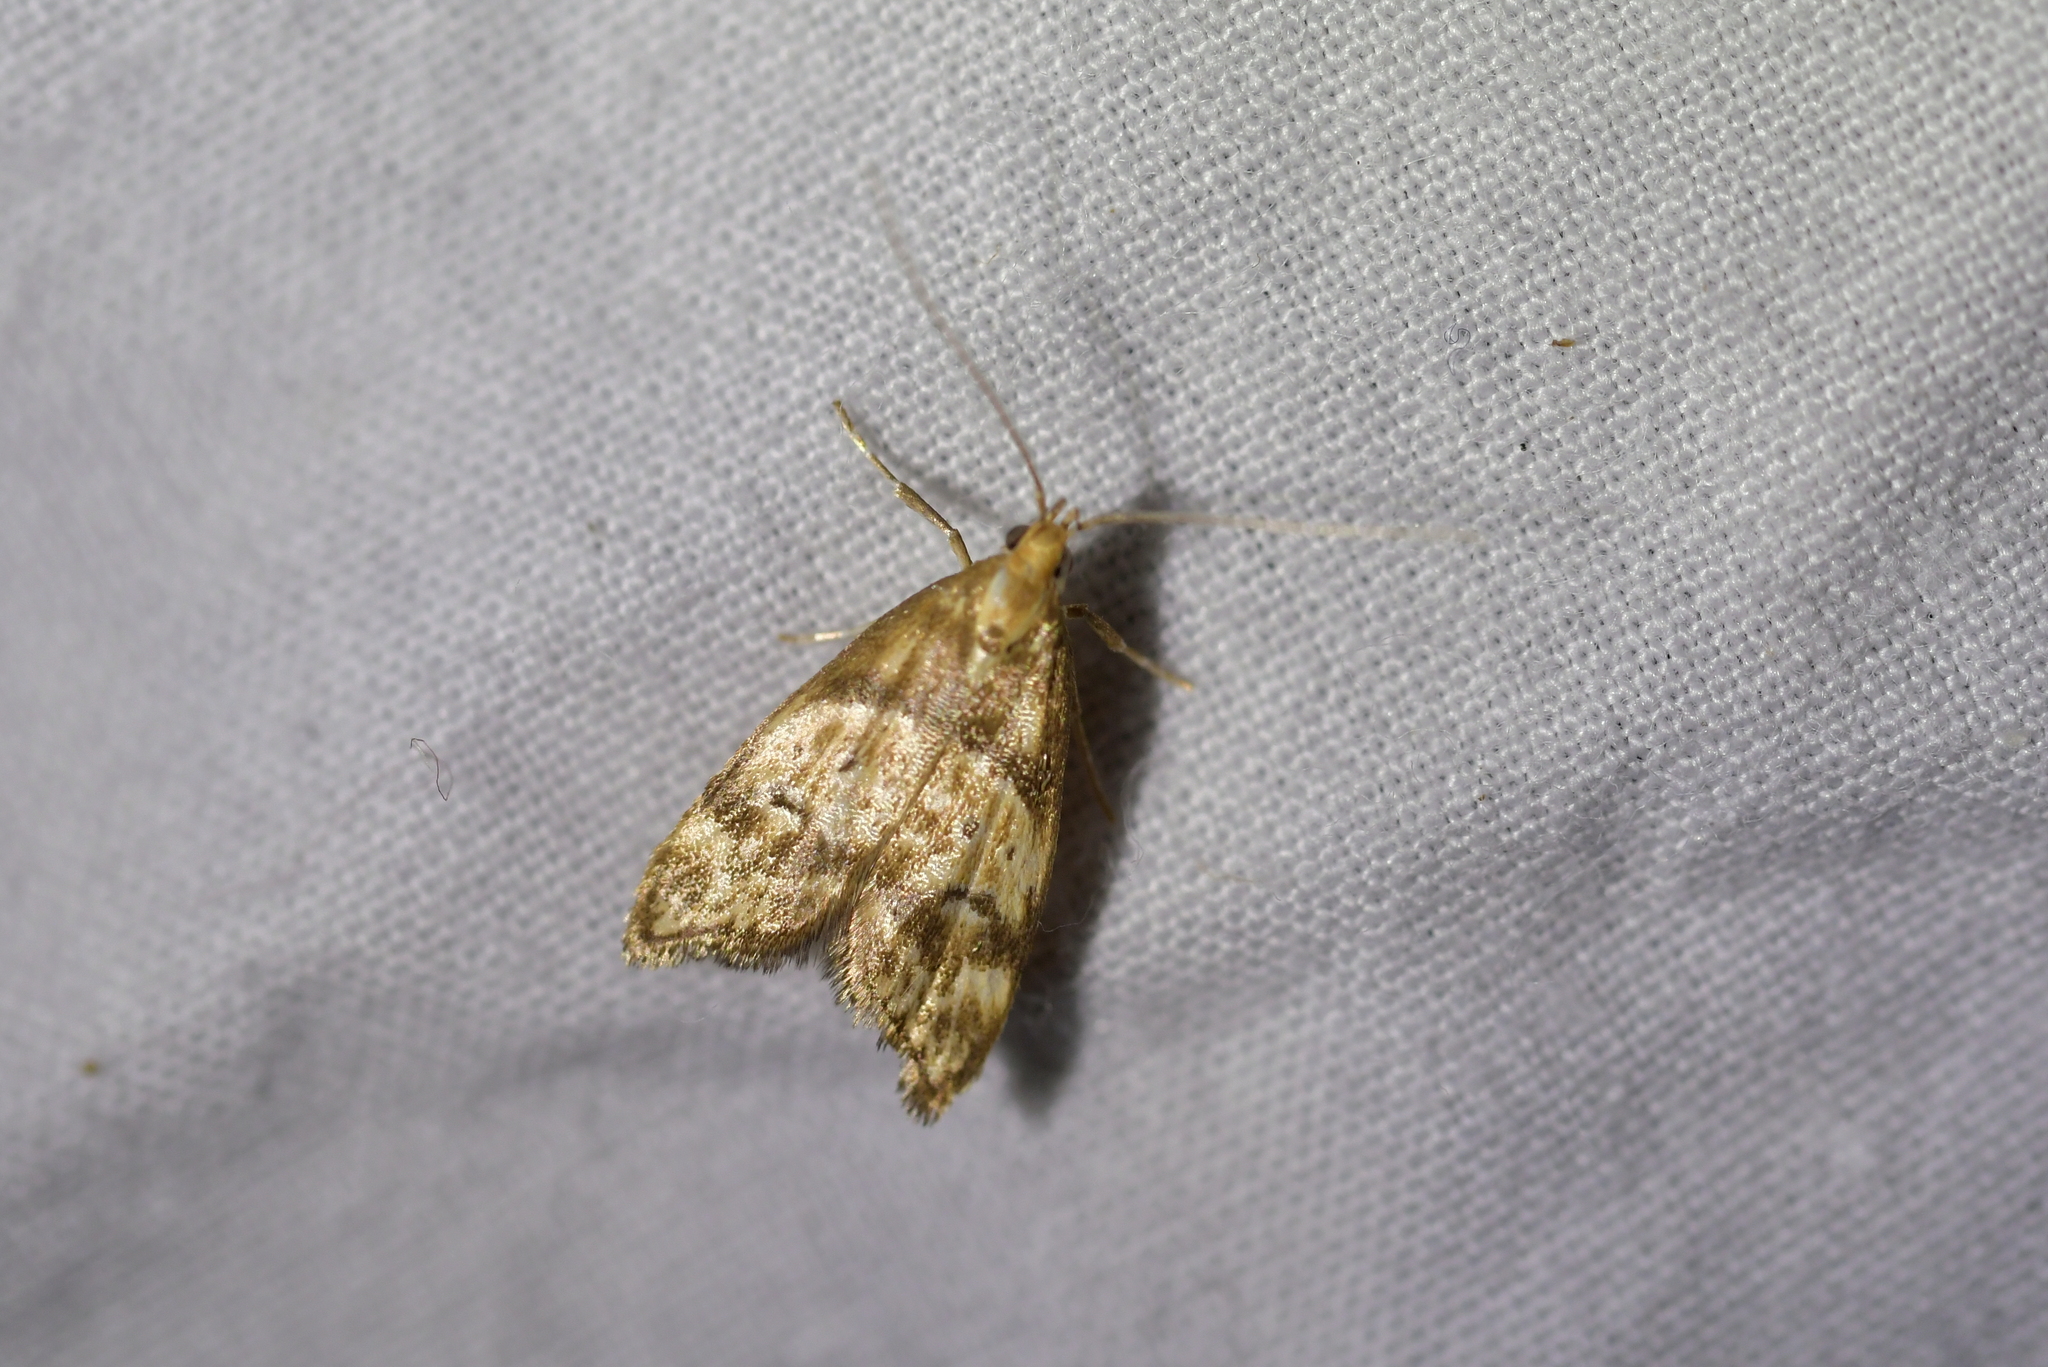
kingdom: Animalia
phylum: Arthropoda
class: Insecta
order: Lepidoptera
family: Oecophoridae
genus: Gymnobathra
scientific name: Gymnobathra hamatella
